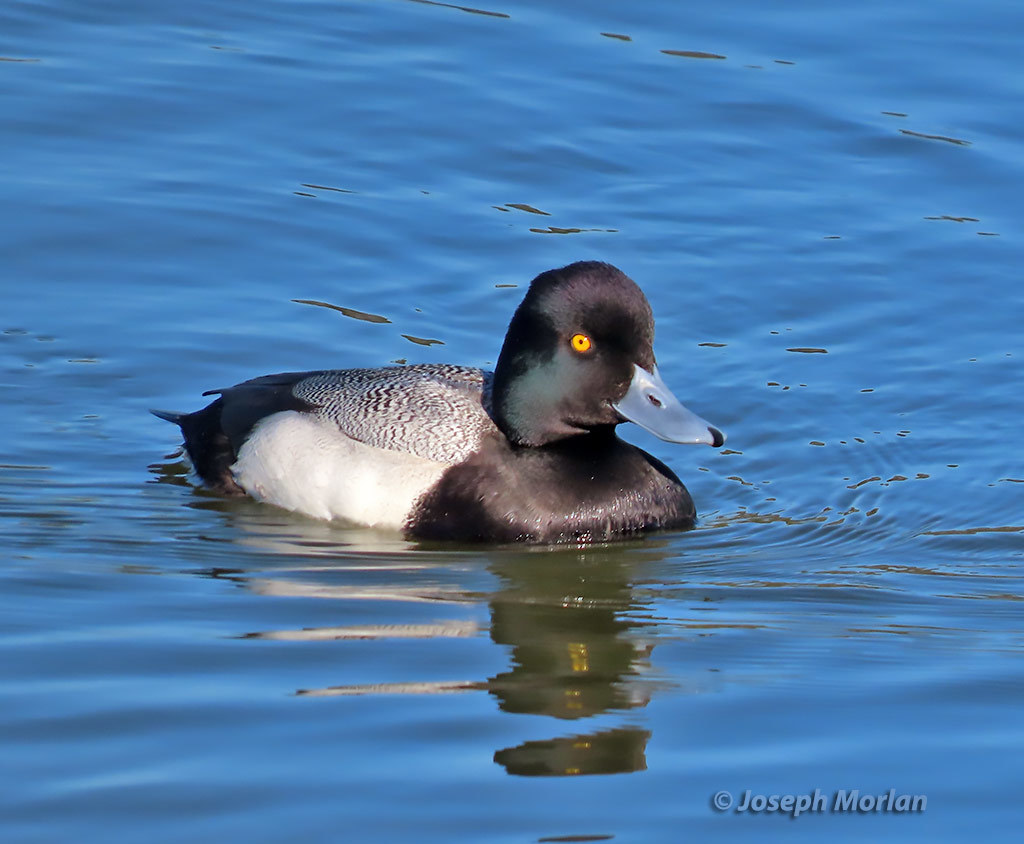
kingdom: Animalia
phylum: Chordata
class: Aves
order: Anseriformes
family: Anatidae
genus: Aythya
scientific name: Aythya affinis
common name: Lesser scaup
